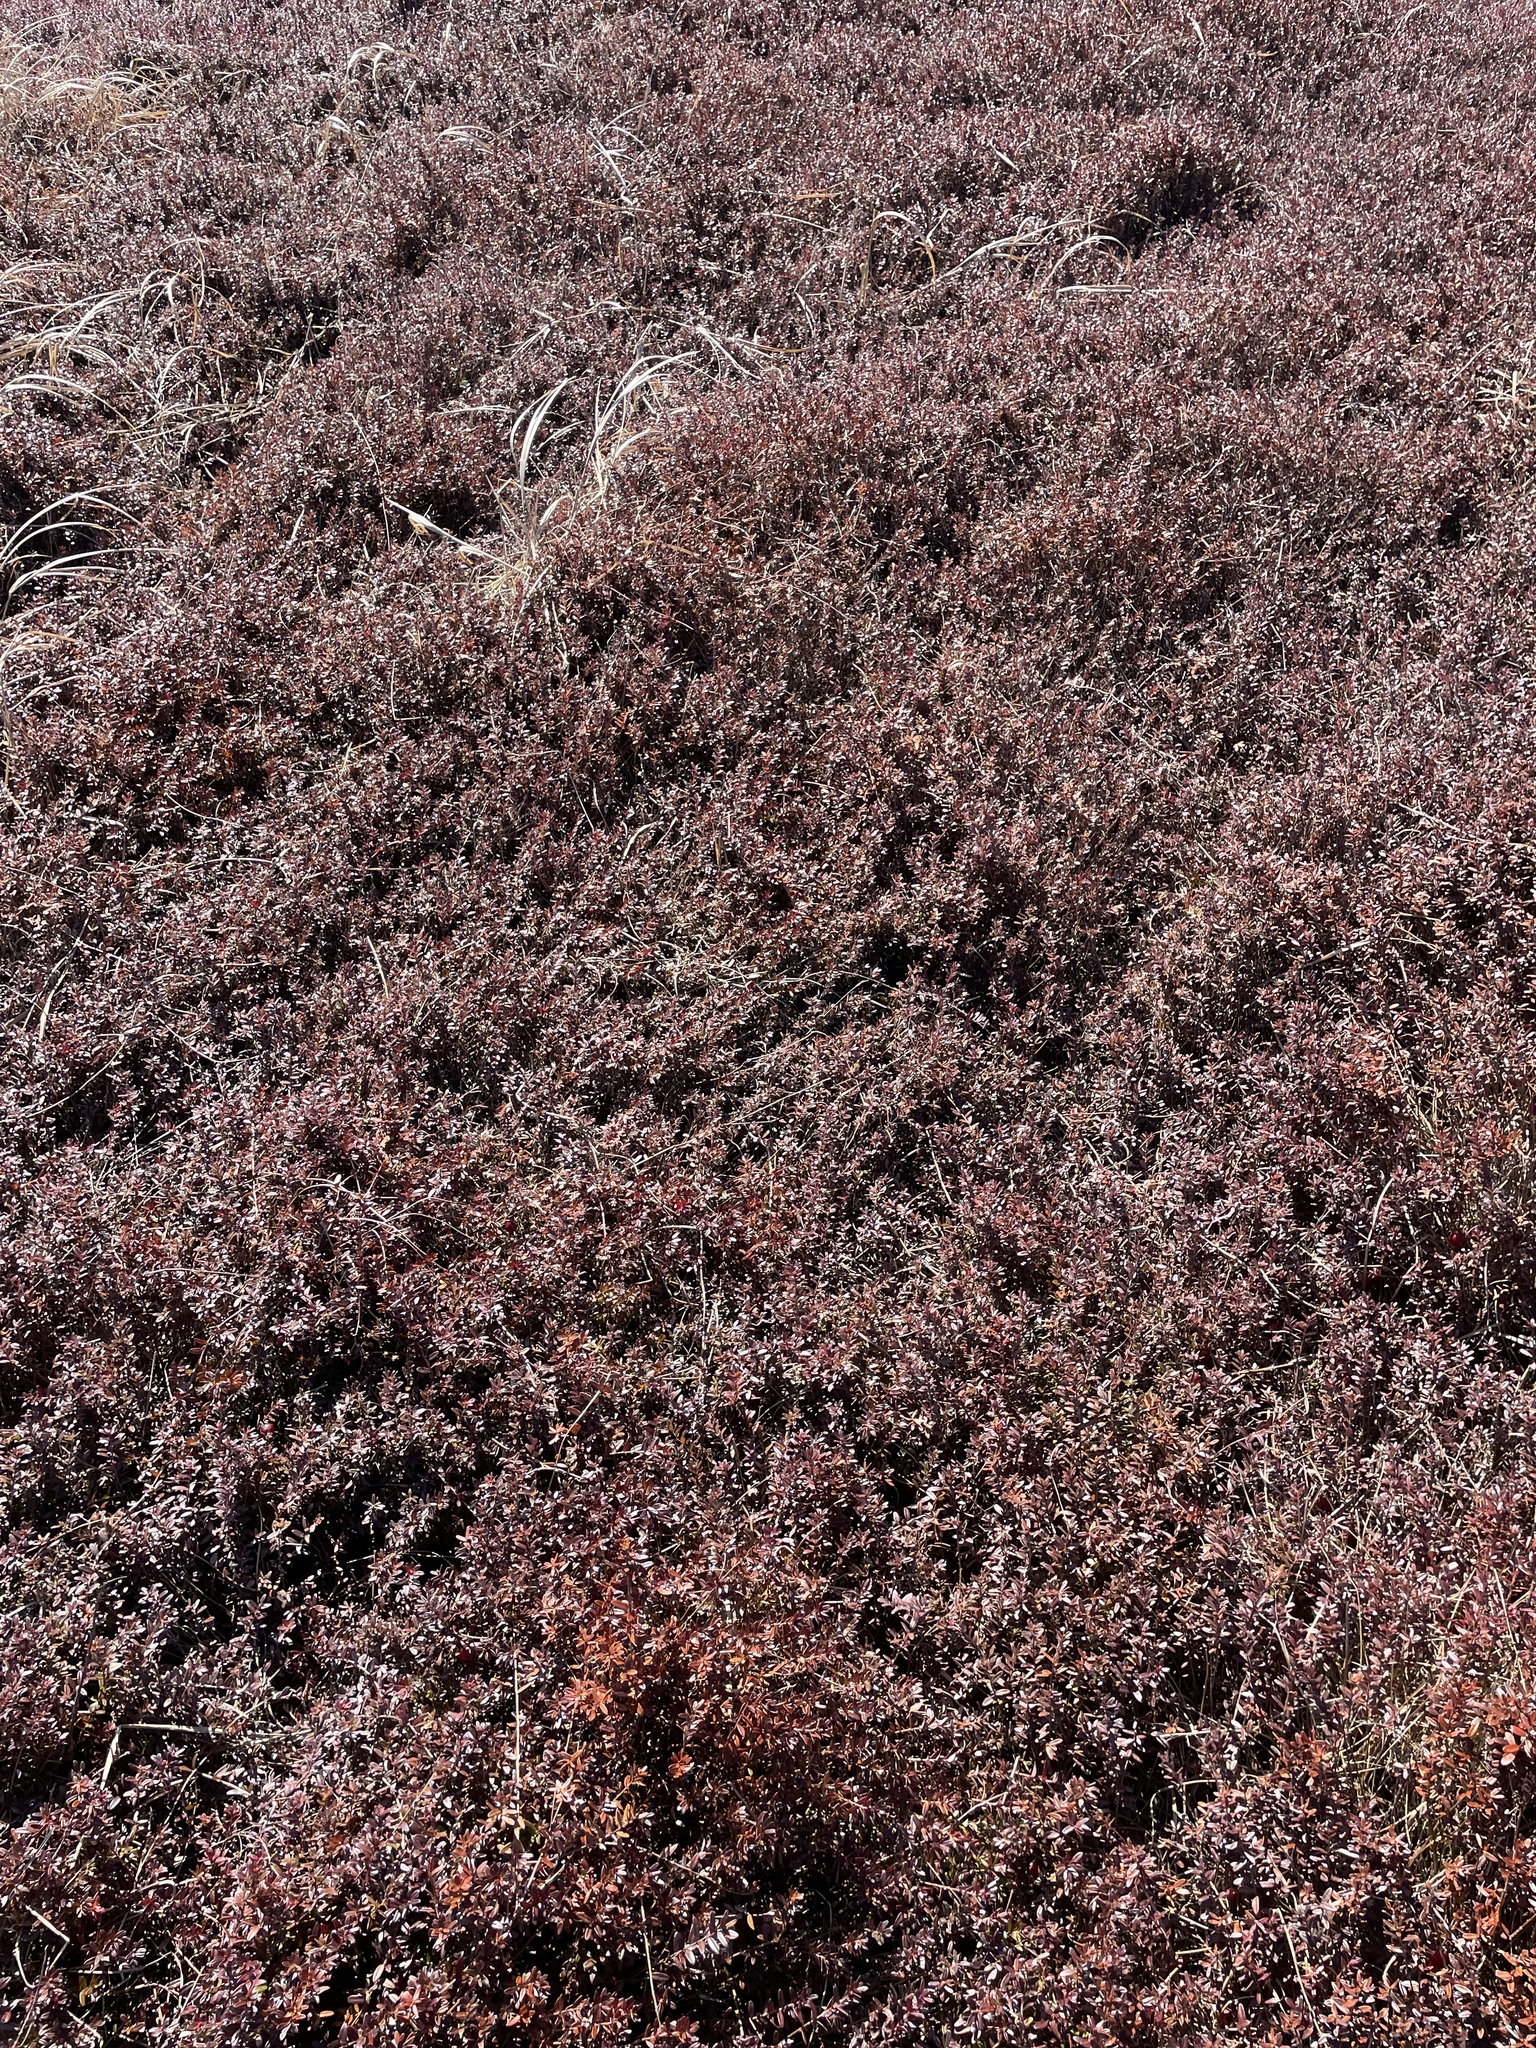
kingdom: Plantae
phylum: Tracheophyta
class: Magnoliopsida
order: Ericales
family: Ericaceae
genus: Vaccinium
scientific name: Vaccinium macrocarpon
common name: American cranberry
